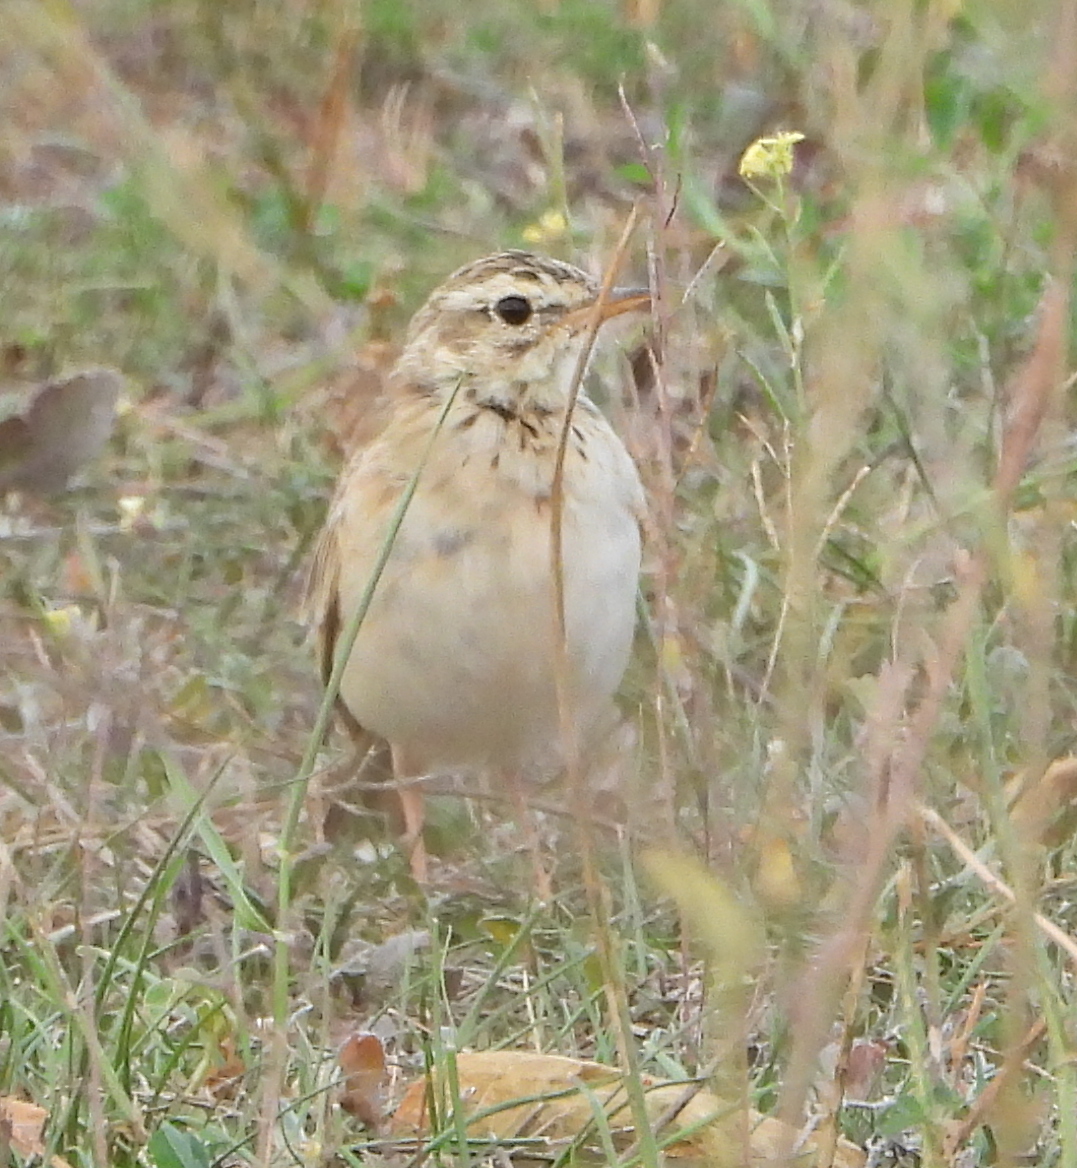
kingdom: Animalia
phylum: Chordata
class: Aves
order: Passeriformes
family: Motacillidae
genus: Anthus
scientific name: Anthus cinnamomeus
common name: African pipit
